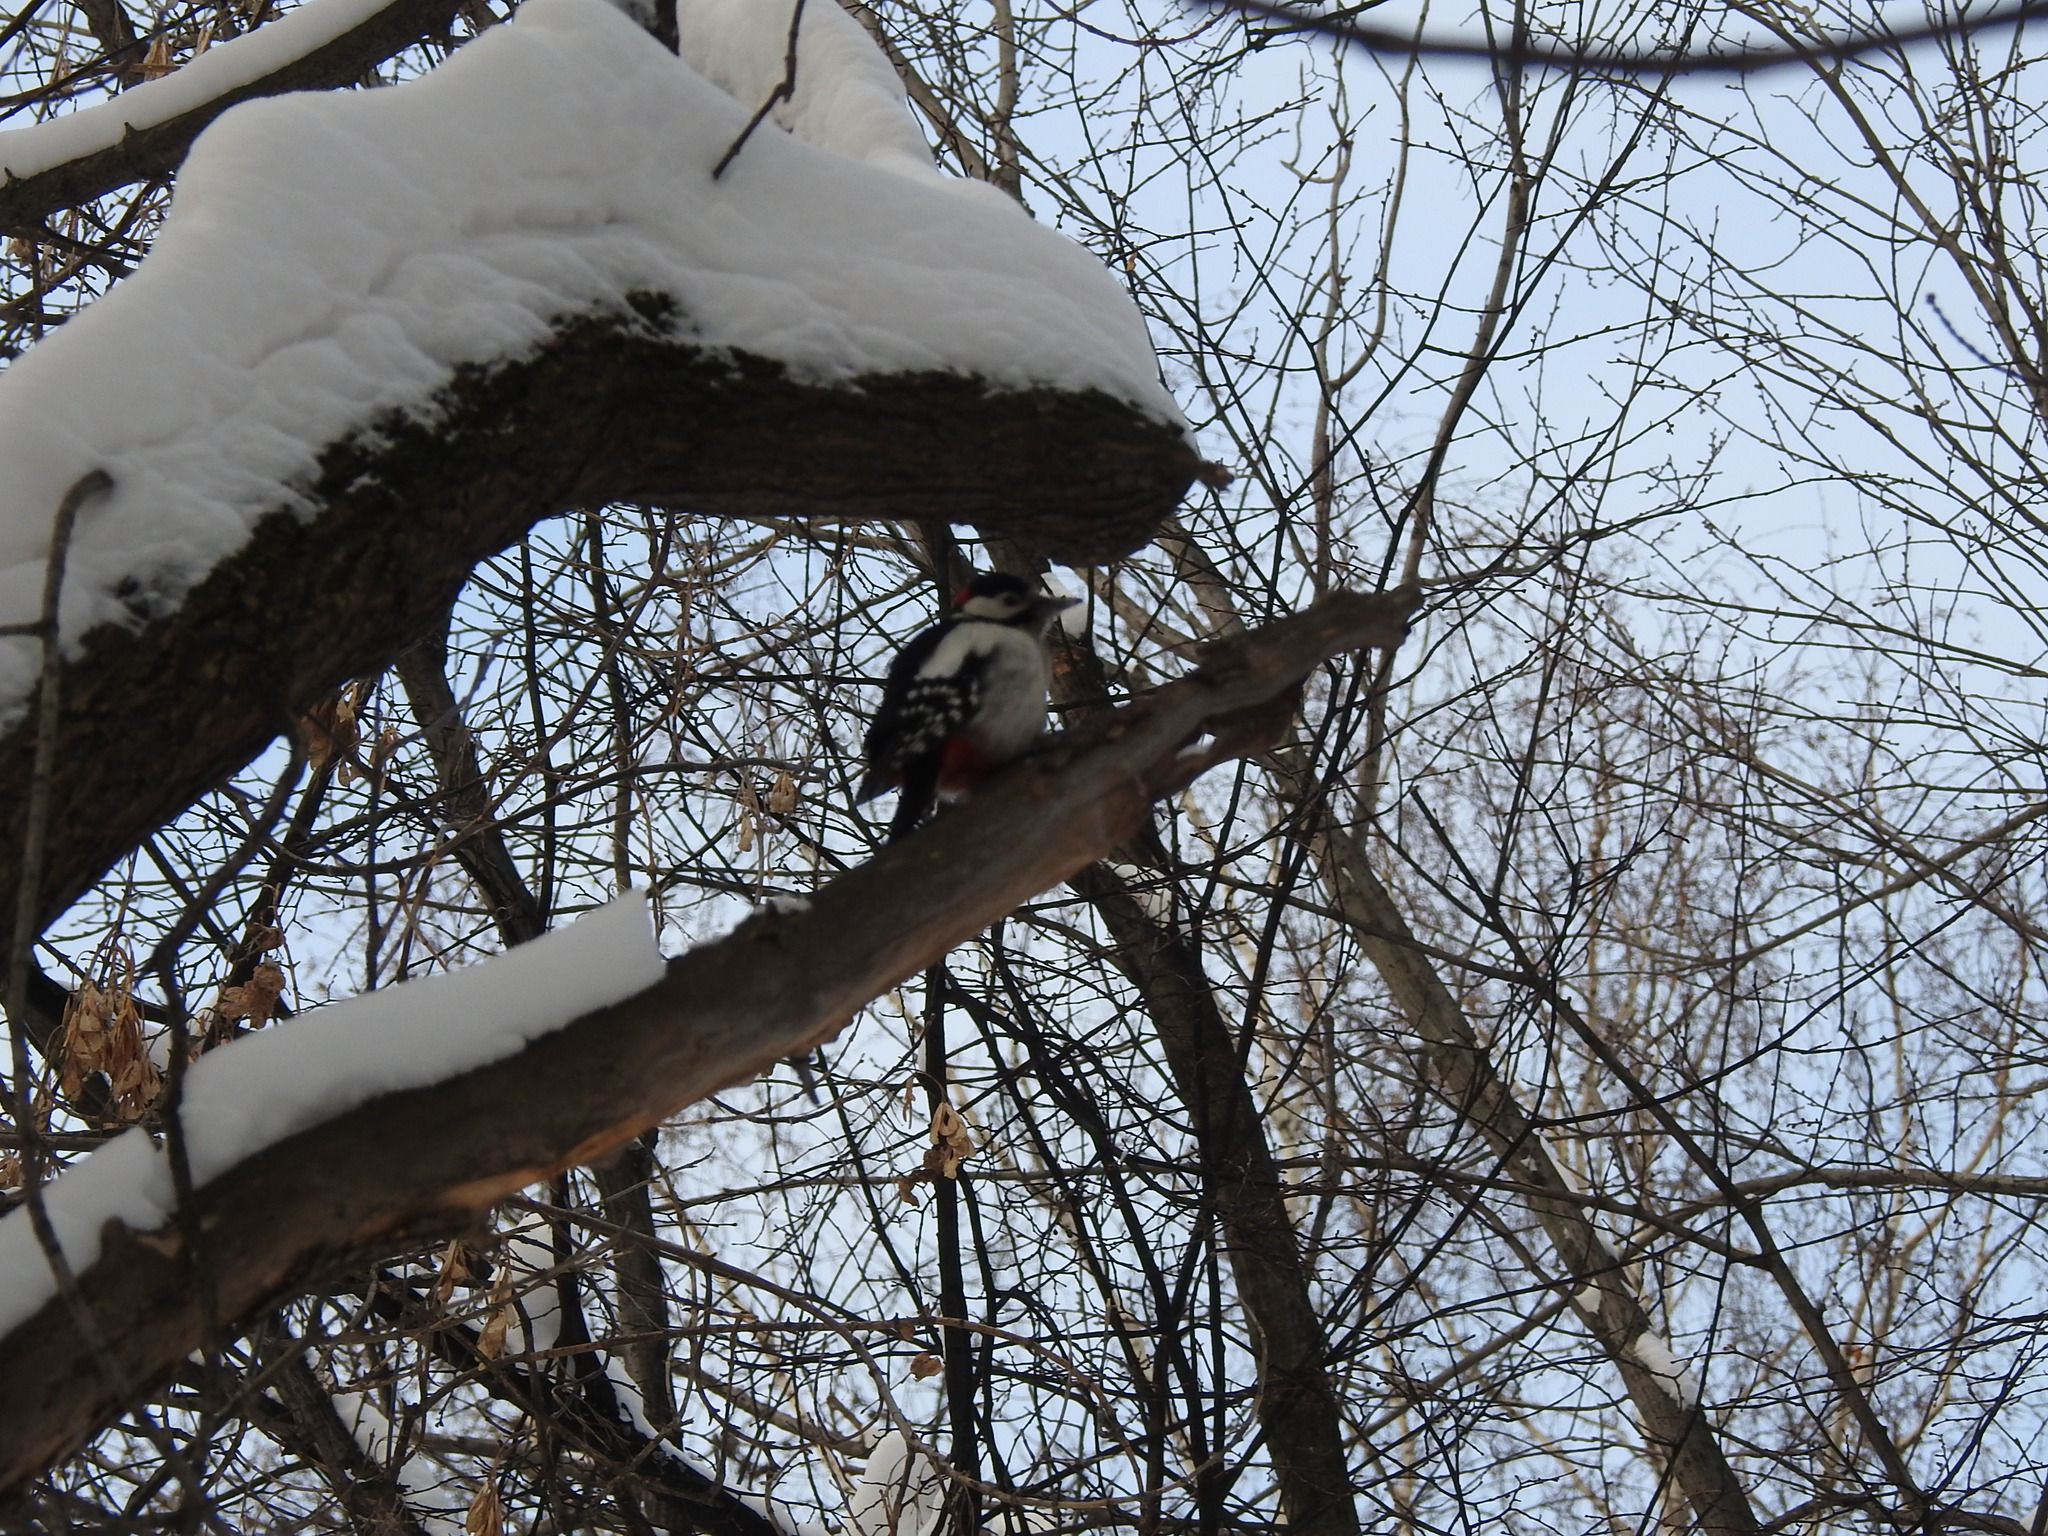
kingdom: Animalia
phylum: Chordata
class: Aves
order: Piciformes
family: Picidae
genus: Dendrocopos
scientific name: Dendrocopos major
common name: Great spotted woodpecker
